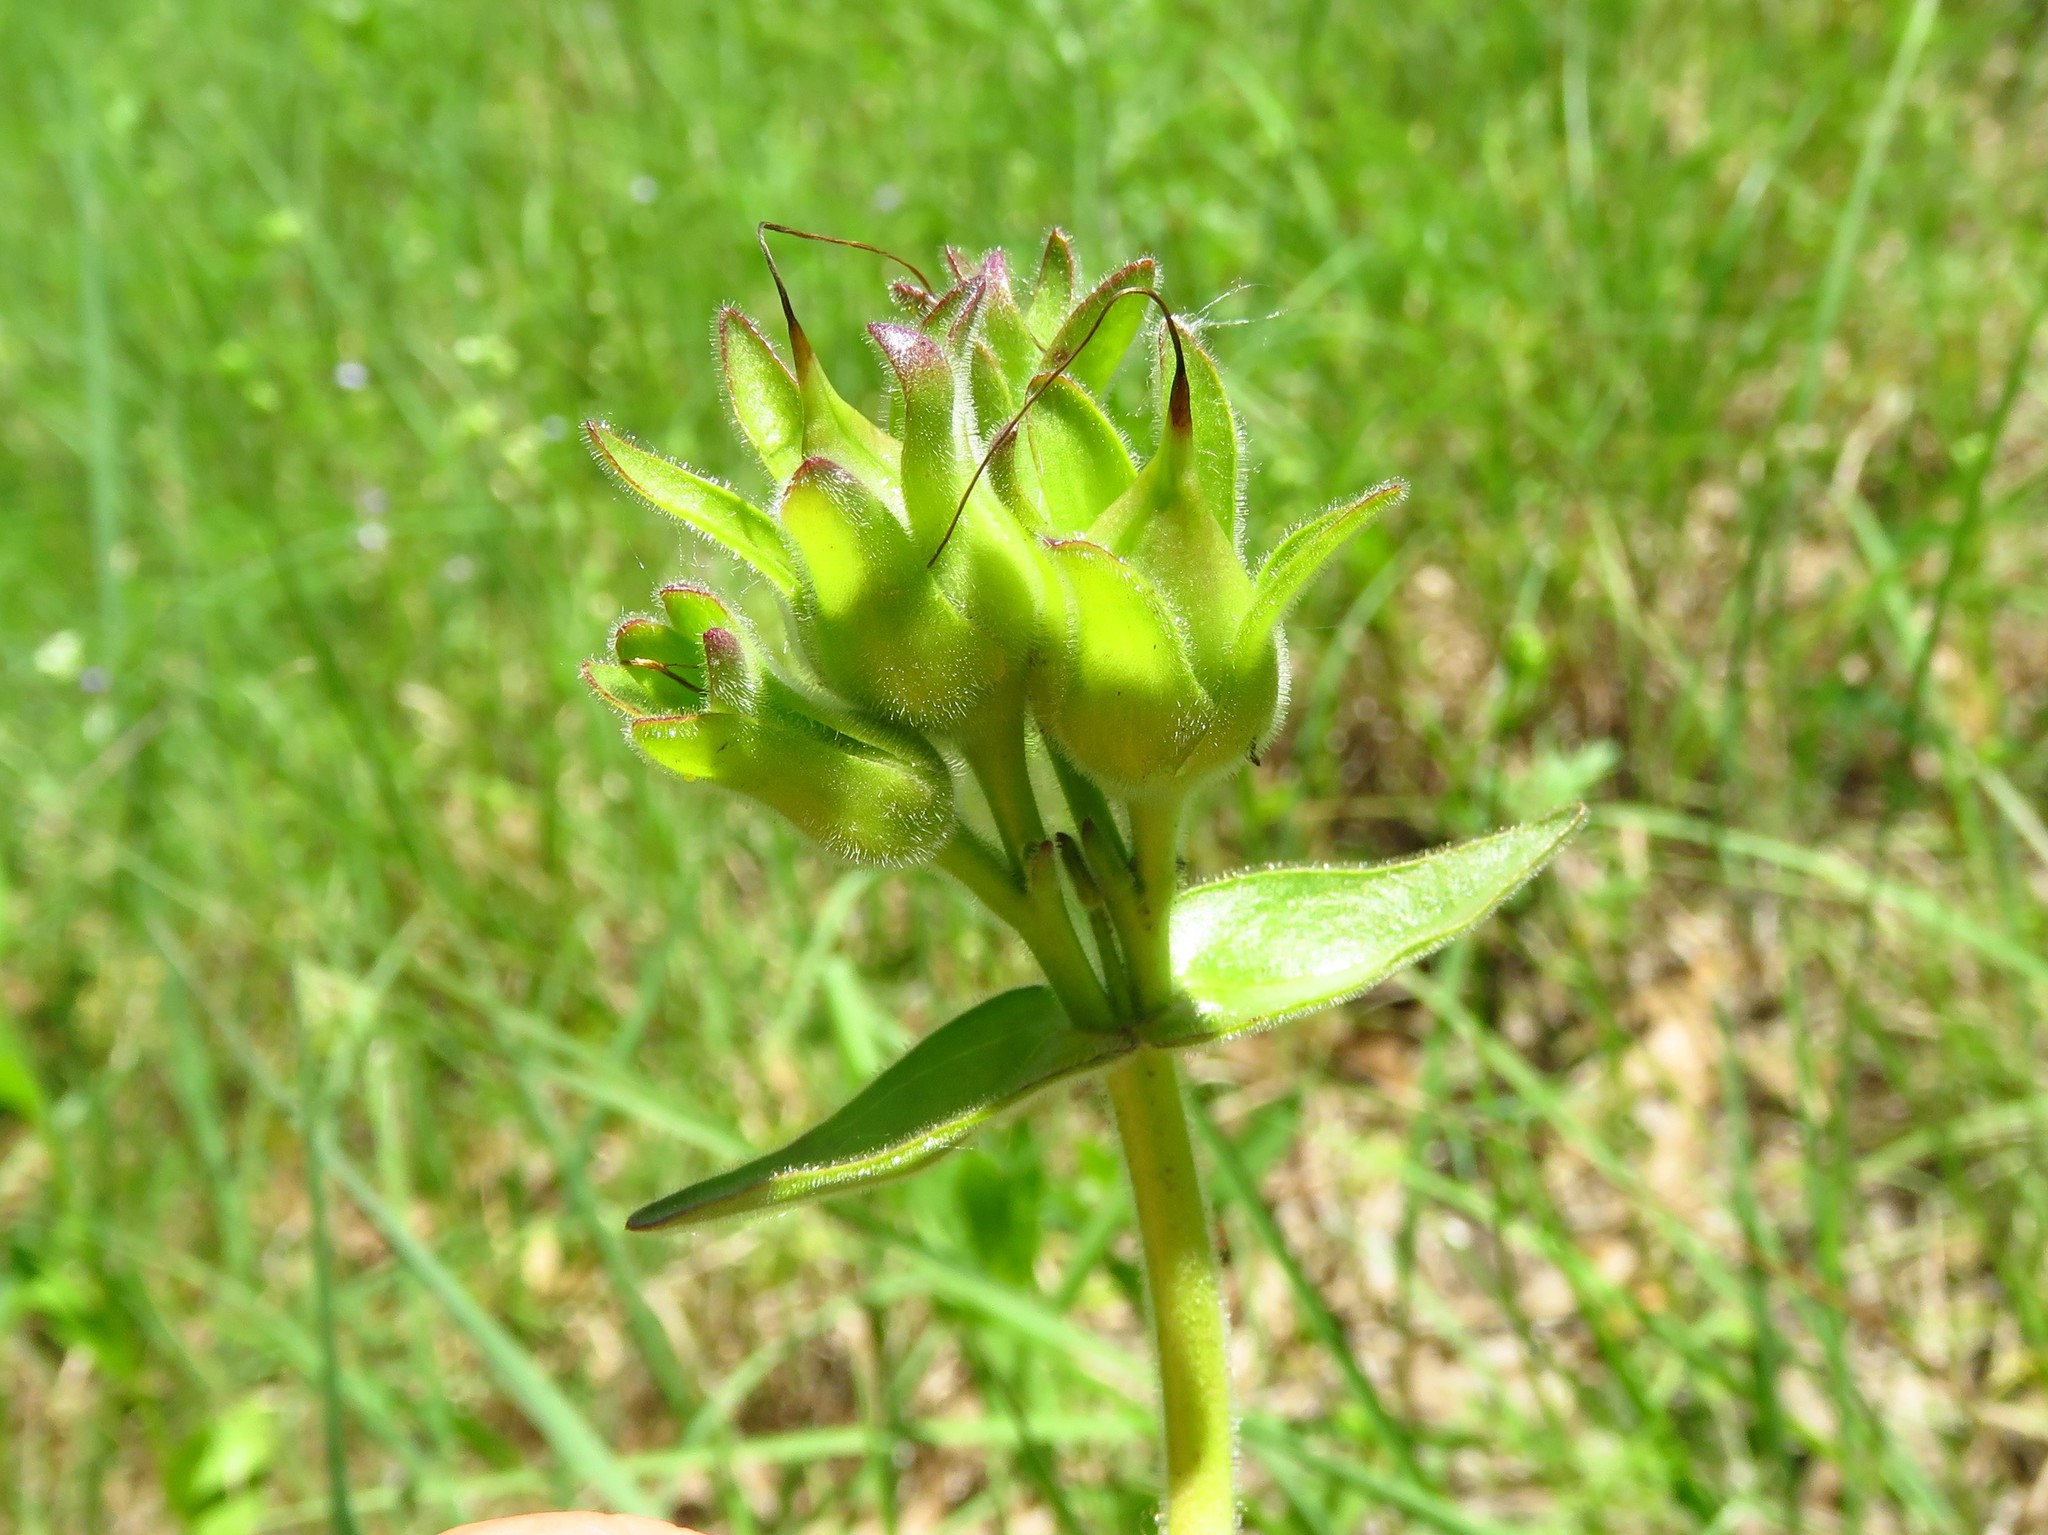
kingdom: Plantae
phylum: Tracheophyta
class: Magnoliopsida
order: Lamiales
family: Plantaginaceae
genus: Penstemon
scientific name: Penstemon cobaea
